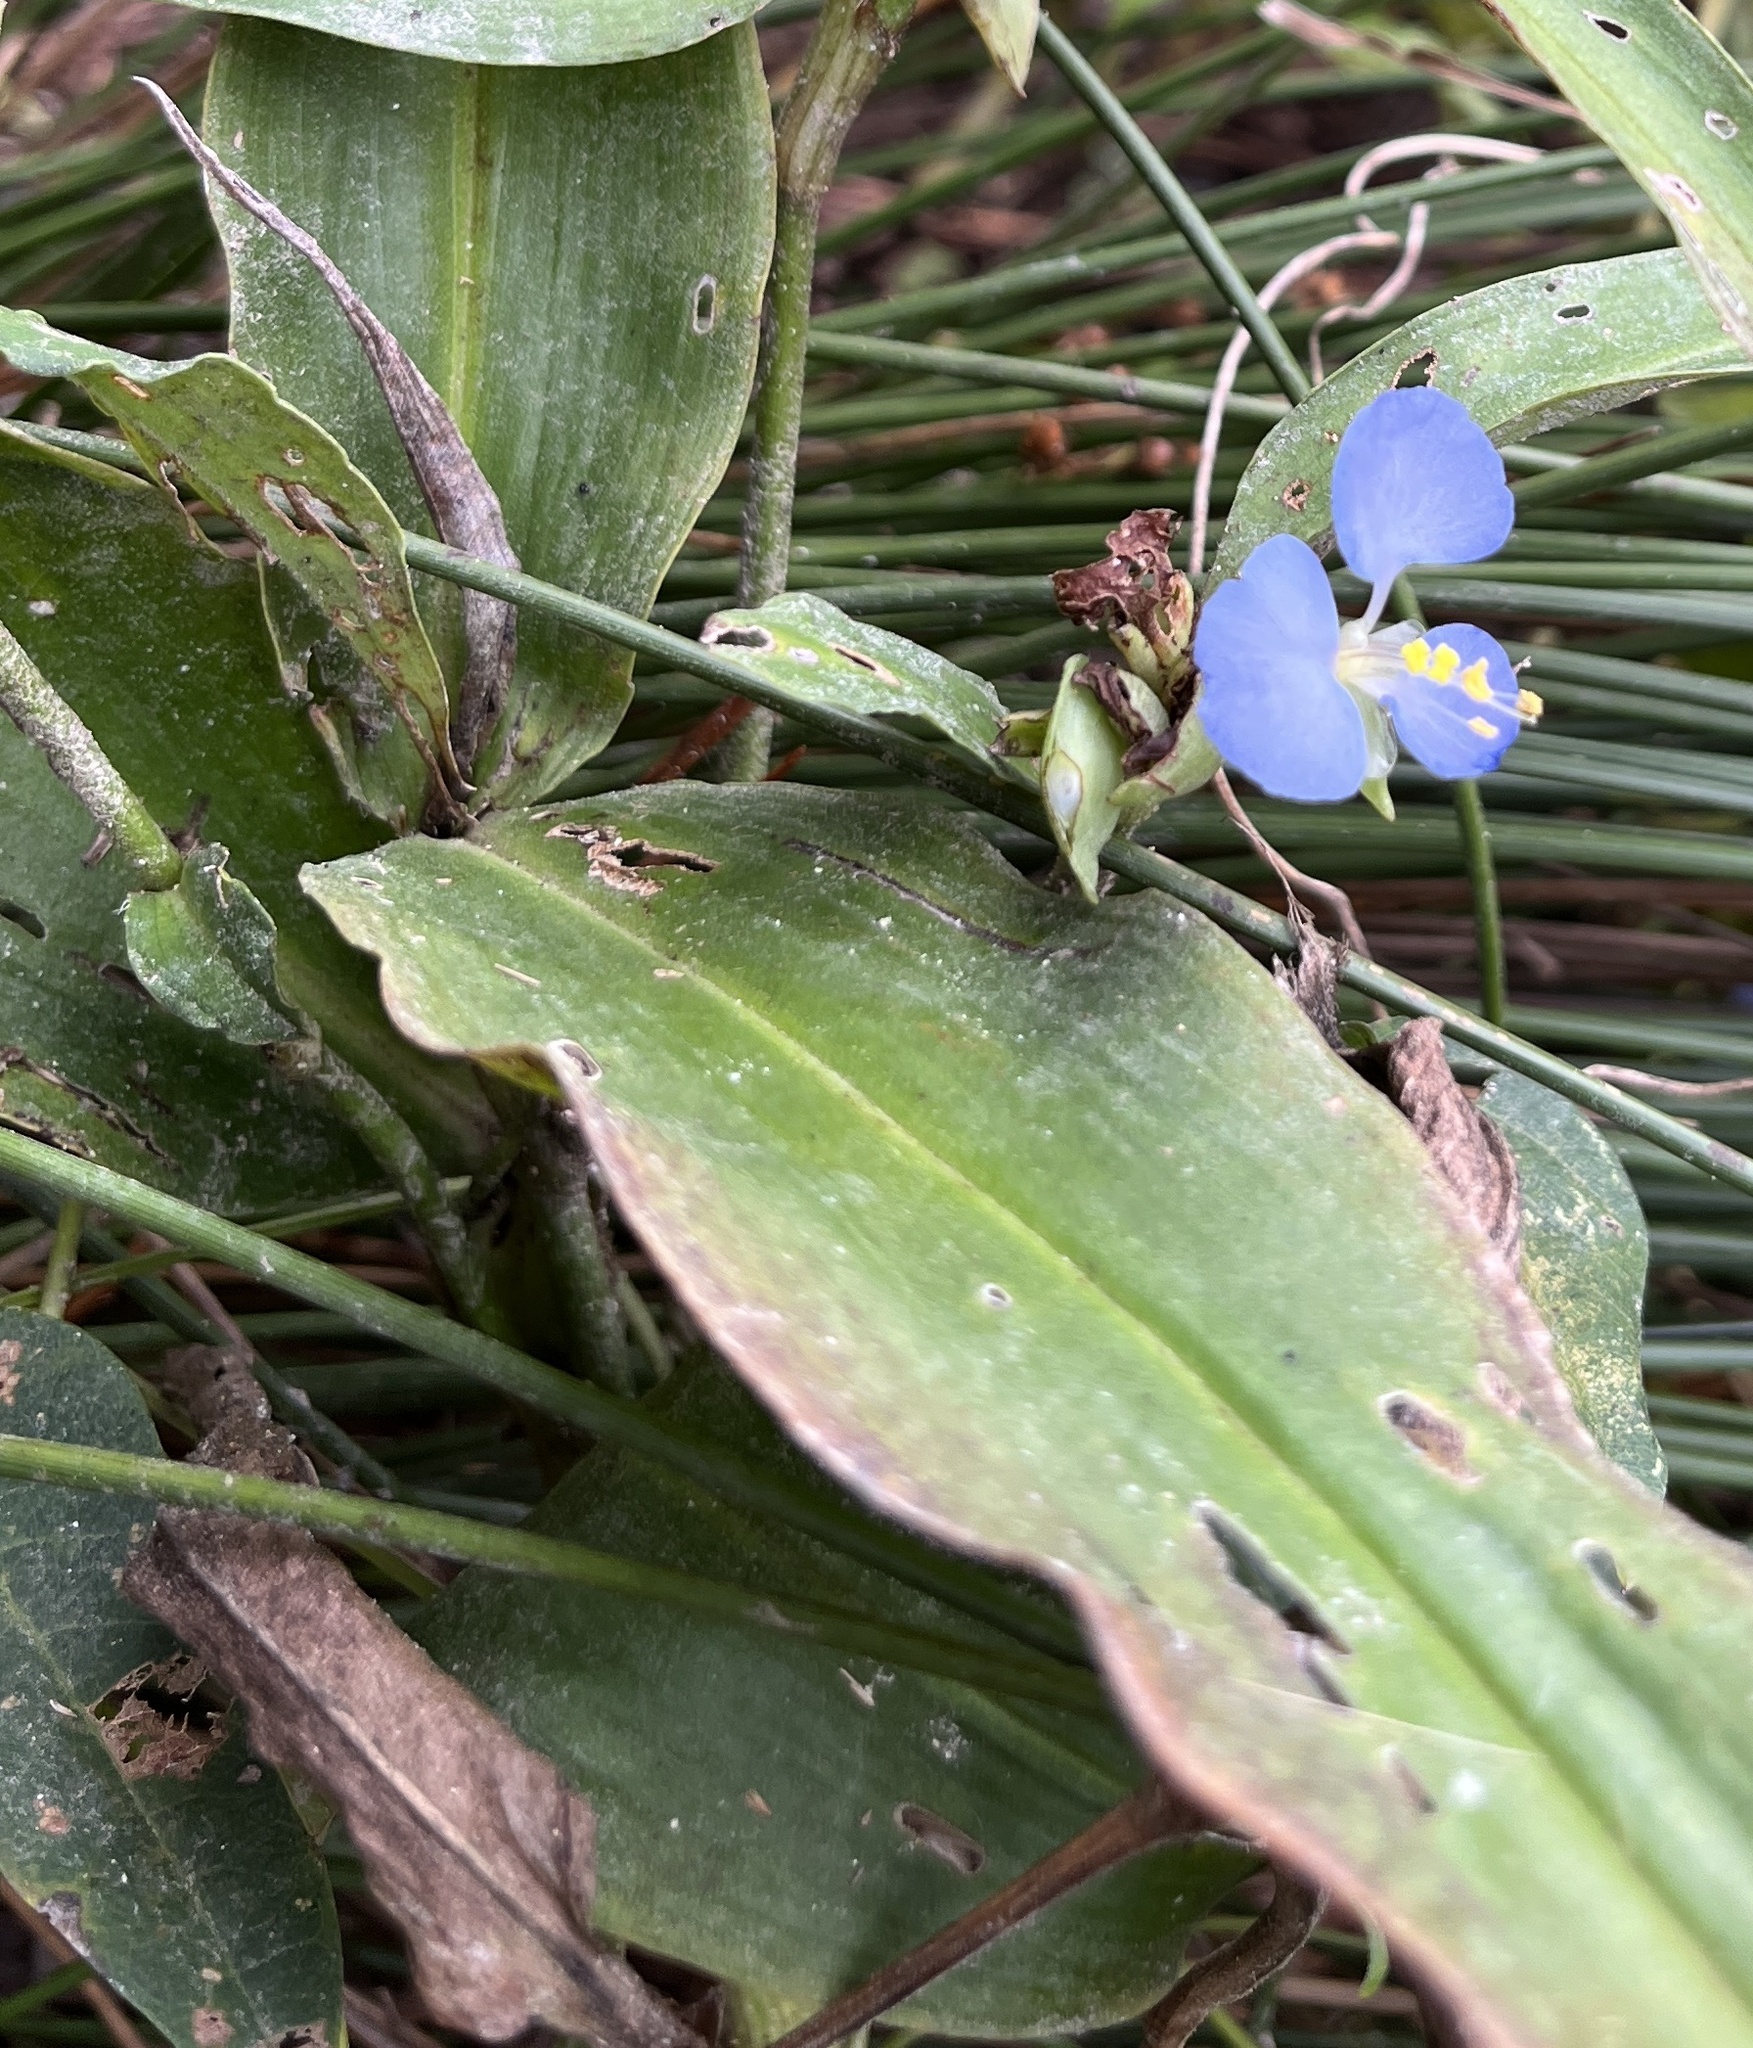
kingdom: Plantae
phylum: Tracheophyta
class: Liliopsida
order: Commelinales
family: Commelinaceae
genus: Commelina
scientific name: Commelina virginica
